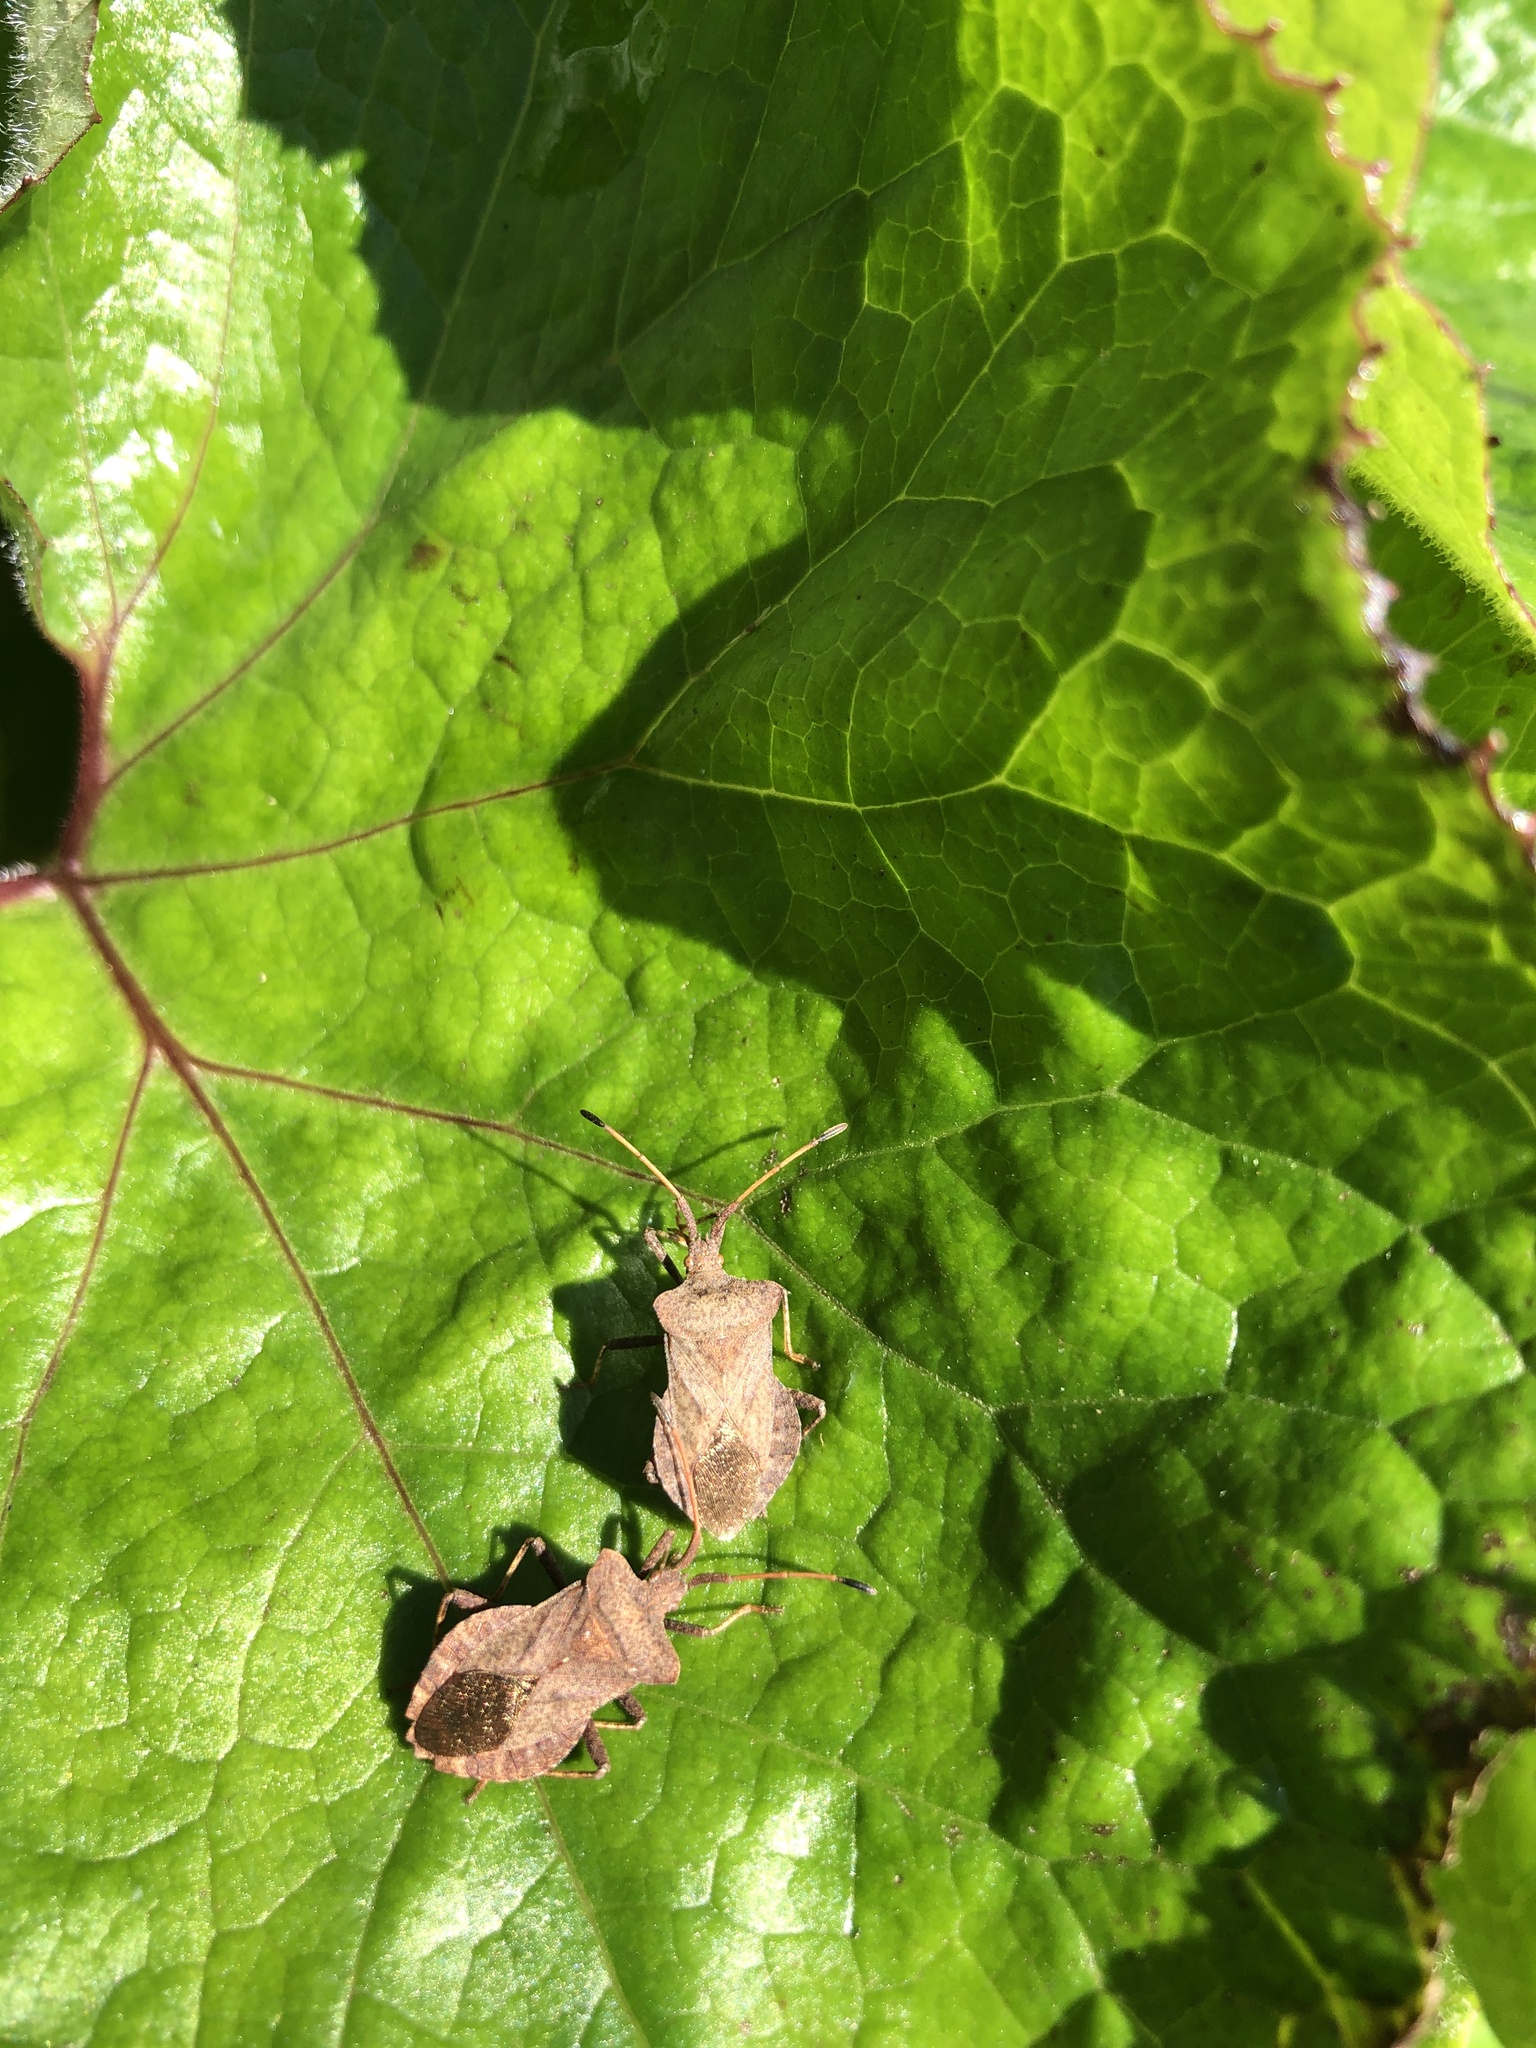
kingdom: Animalia
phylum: Arthropoda
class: Insecta
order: Hemiptera
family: Coreidae
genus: Coreus
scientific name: Coreus marginatus
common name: Dock bug
